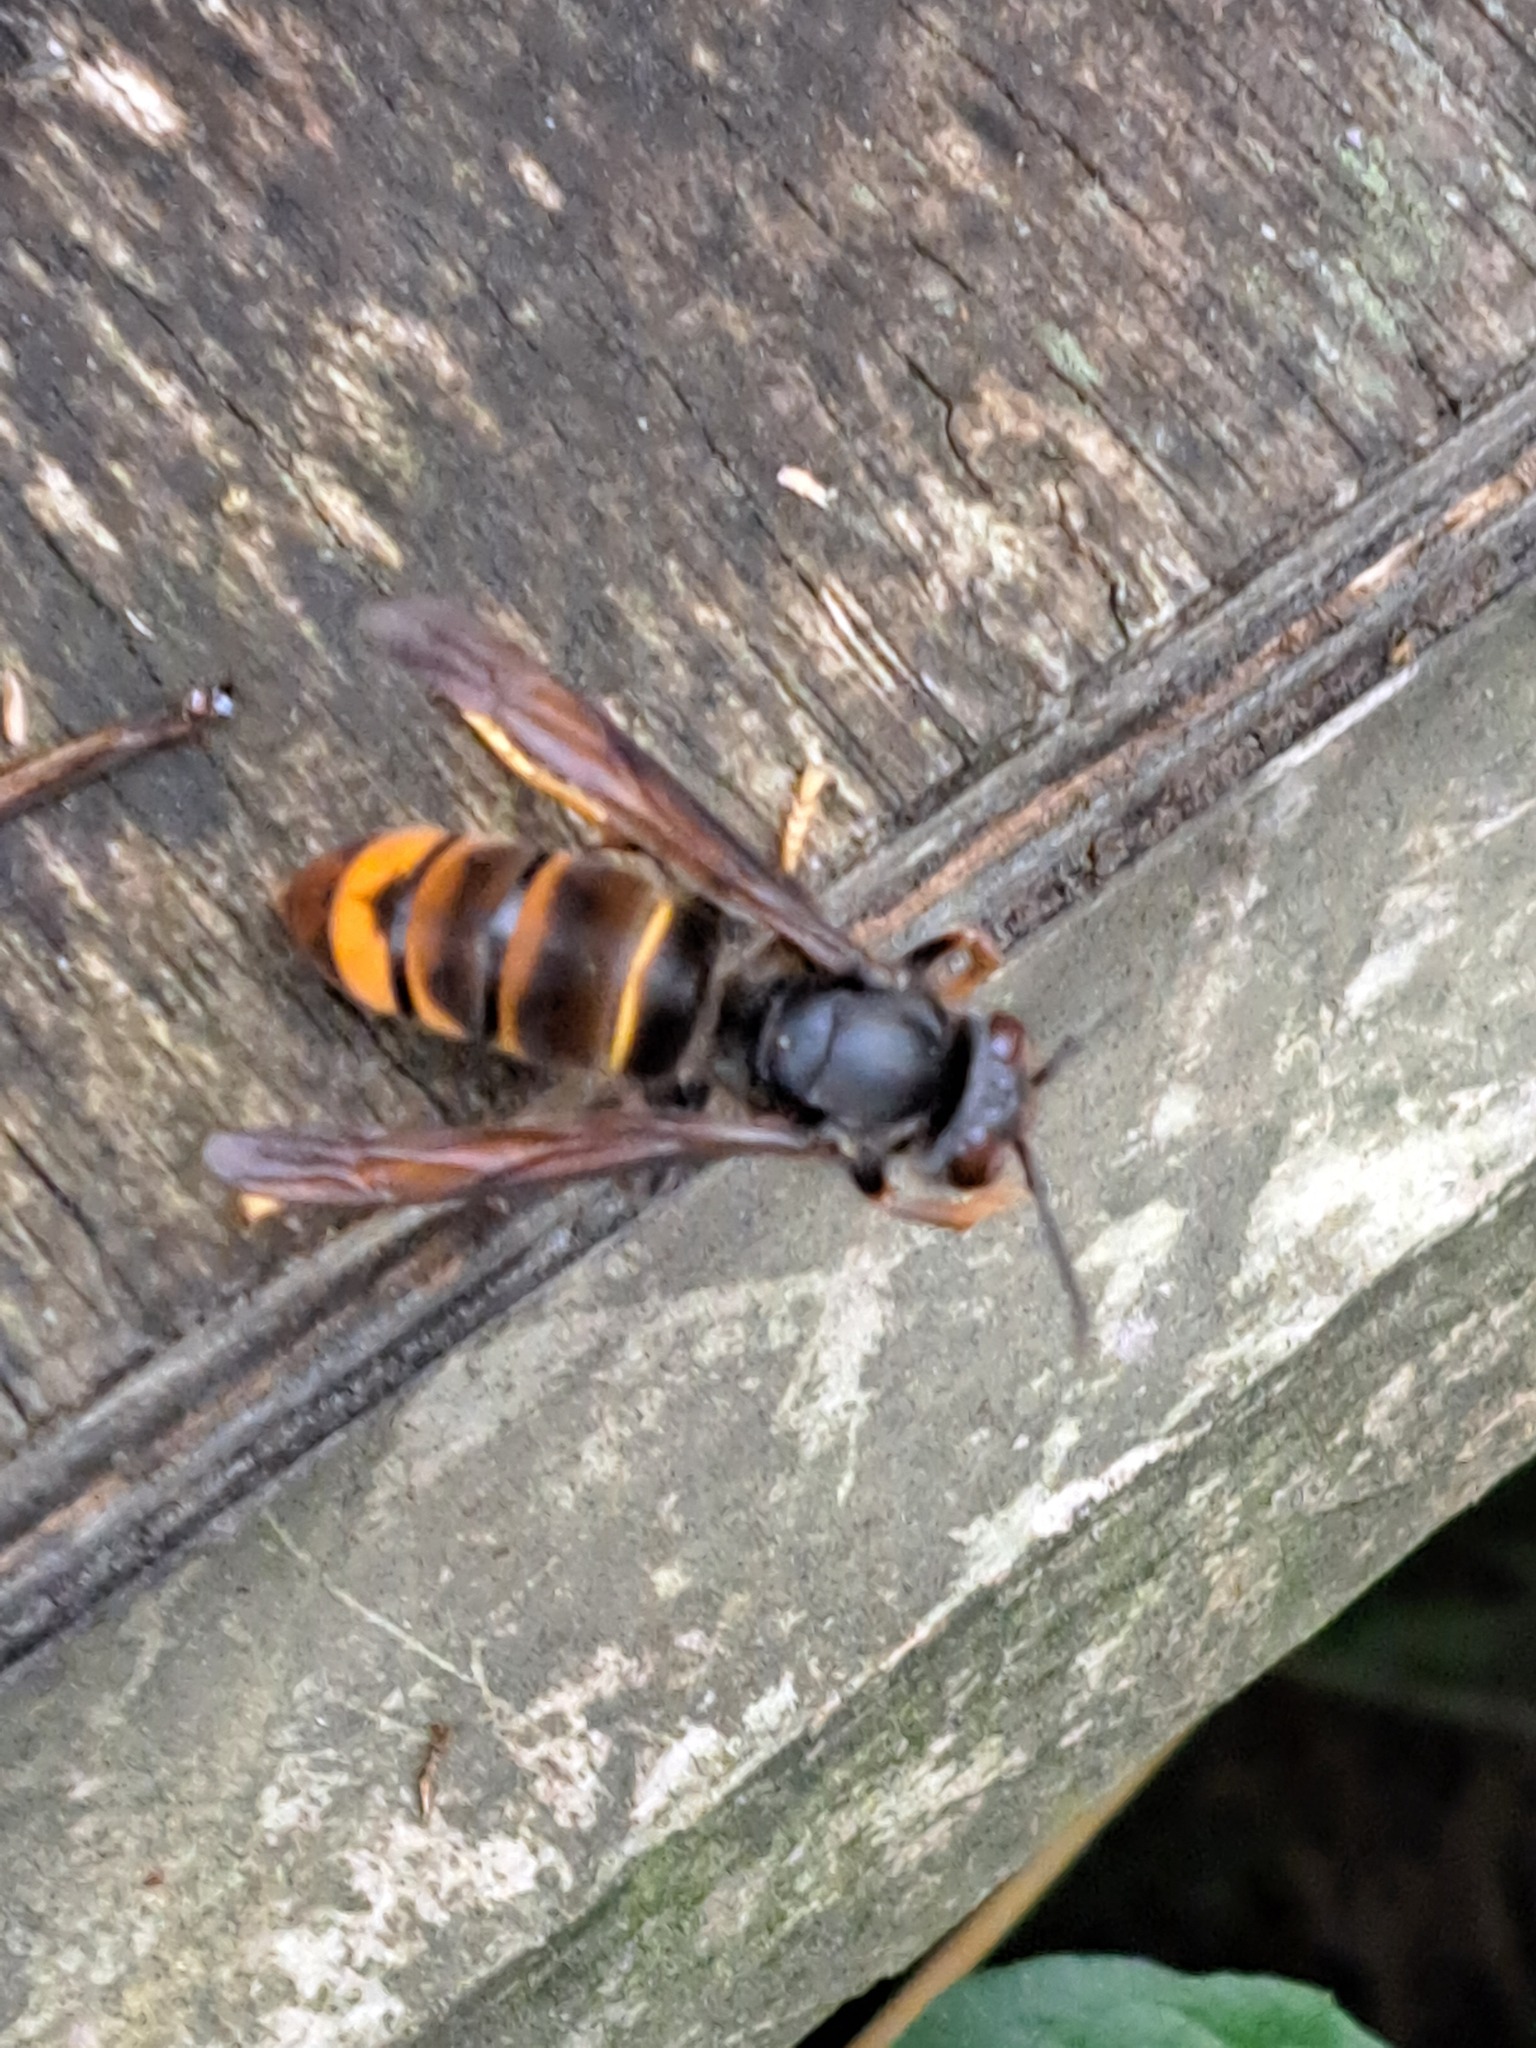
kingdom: Animalia
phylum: Arthropoda
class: Insecta
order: Hymenoptera
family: Vespidae
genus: Vespa
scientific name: Vespa velutina
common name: Asian hornet
